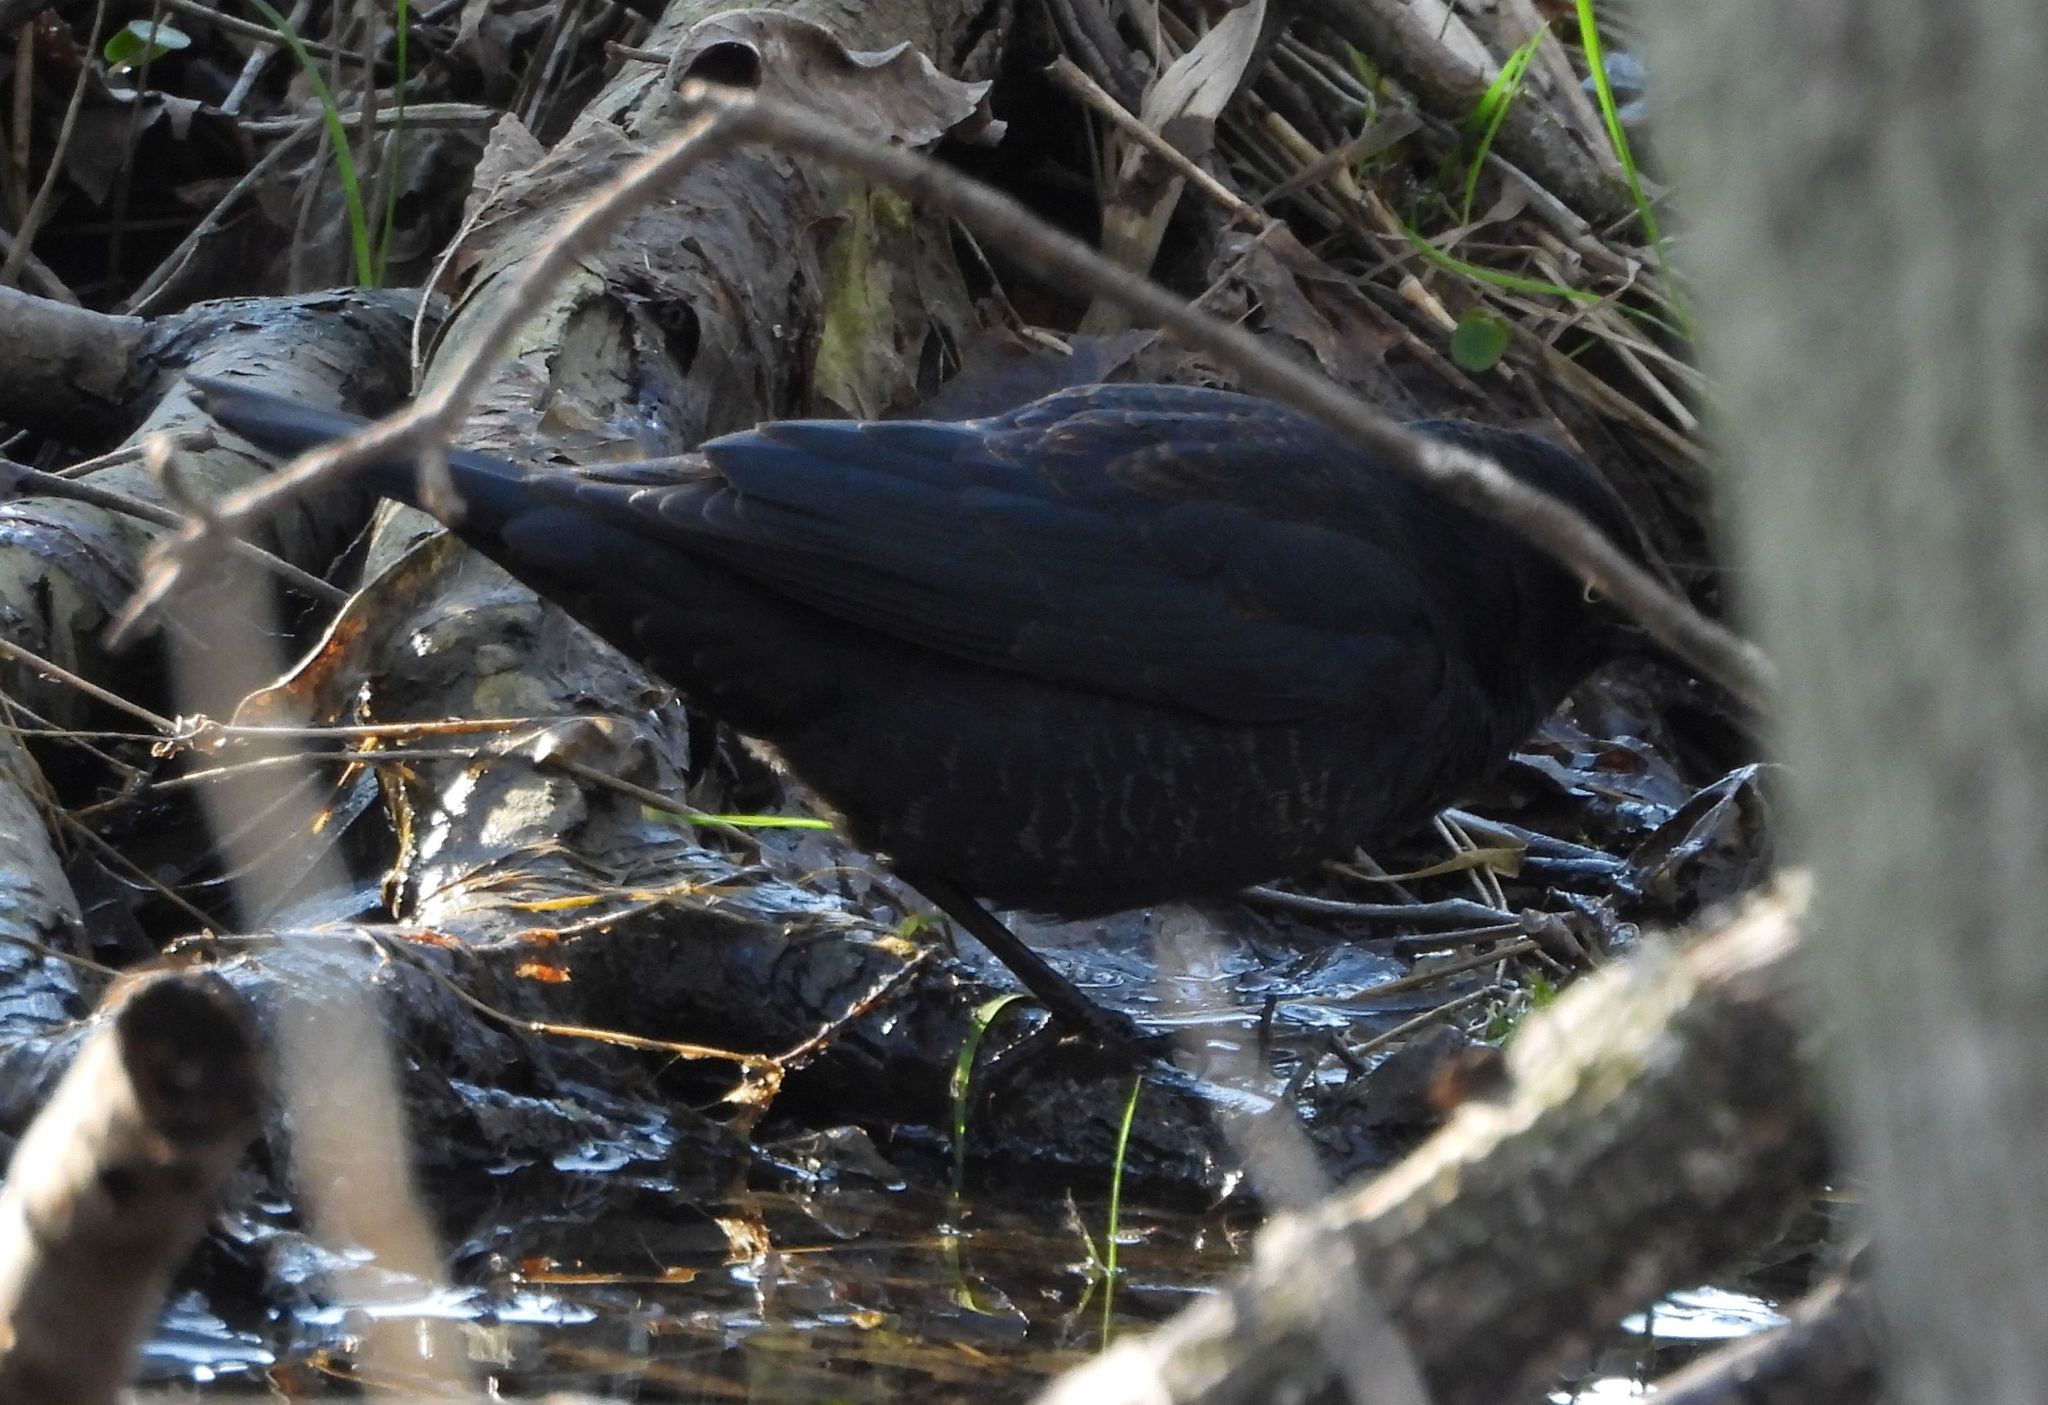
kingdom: Animalia
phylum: Chordata
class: Aves
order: Passeriformes
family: Icteridae
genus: Euphagus
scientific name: Euphagus carolinus
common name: Rusty blackbird
